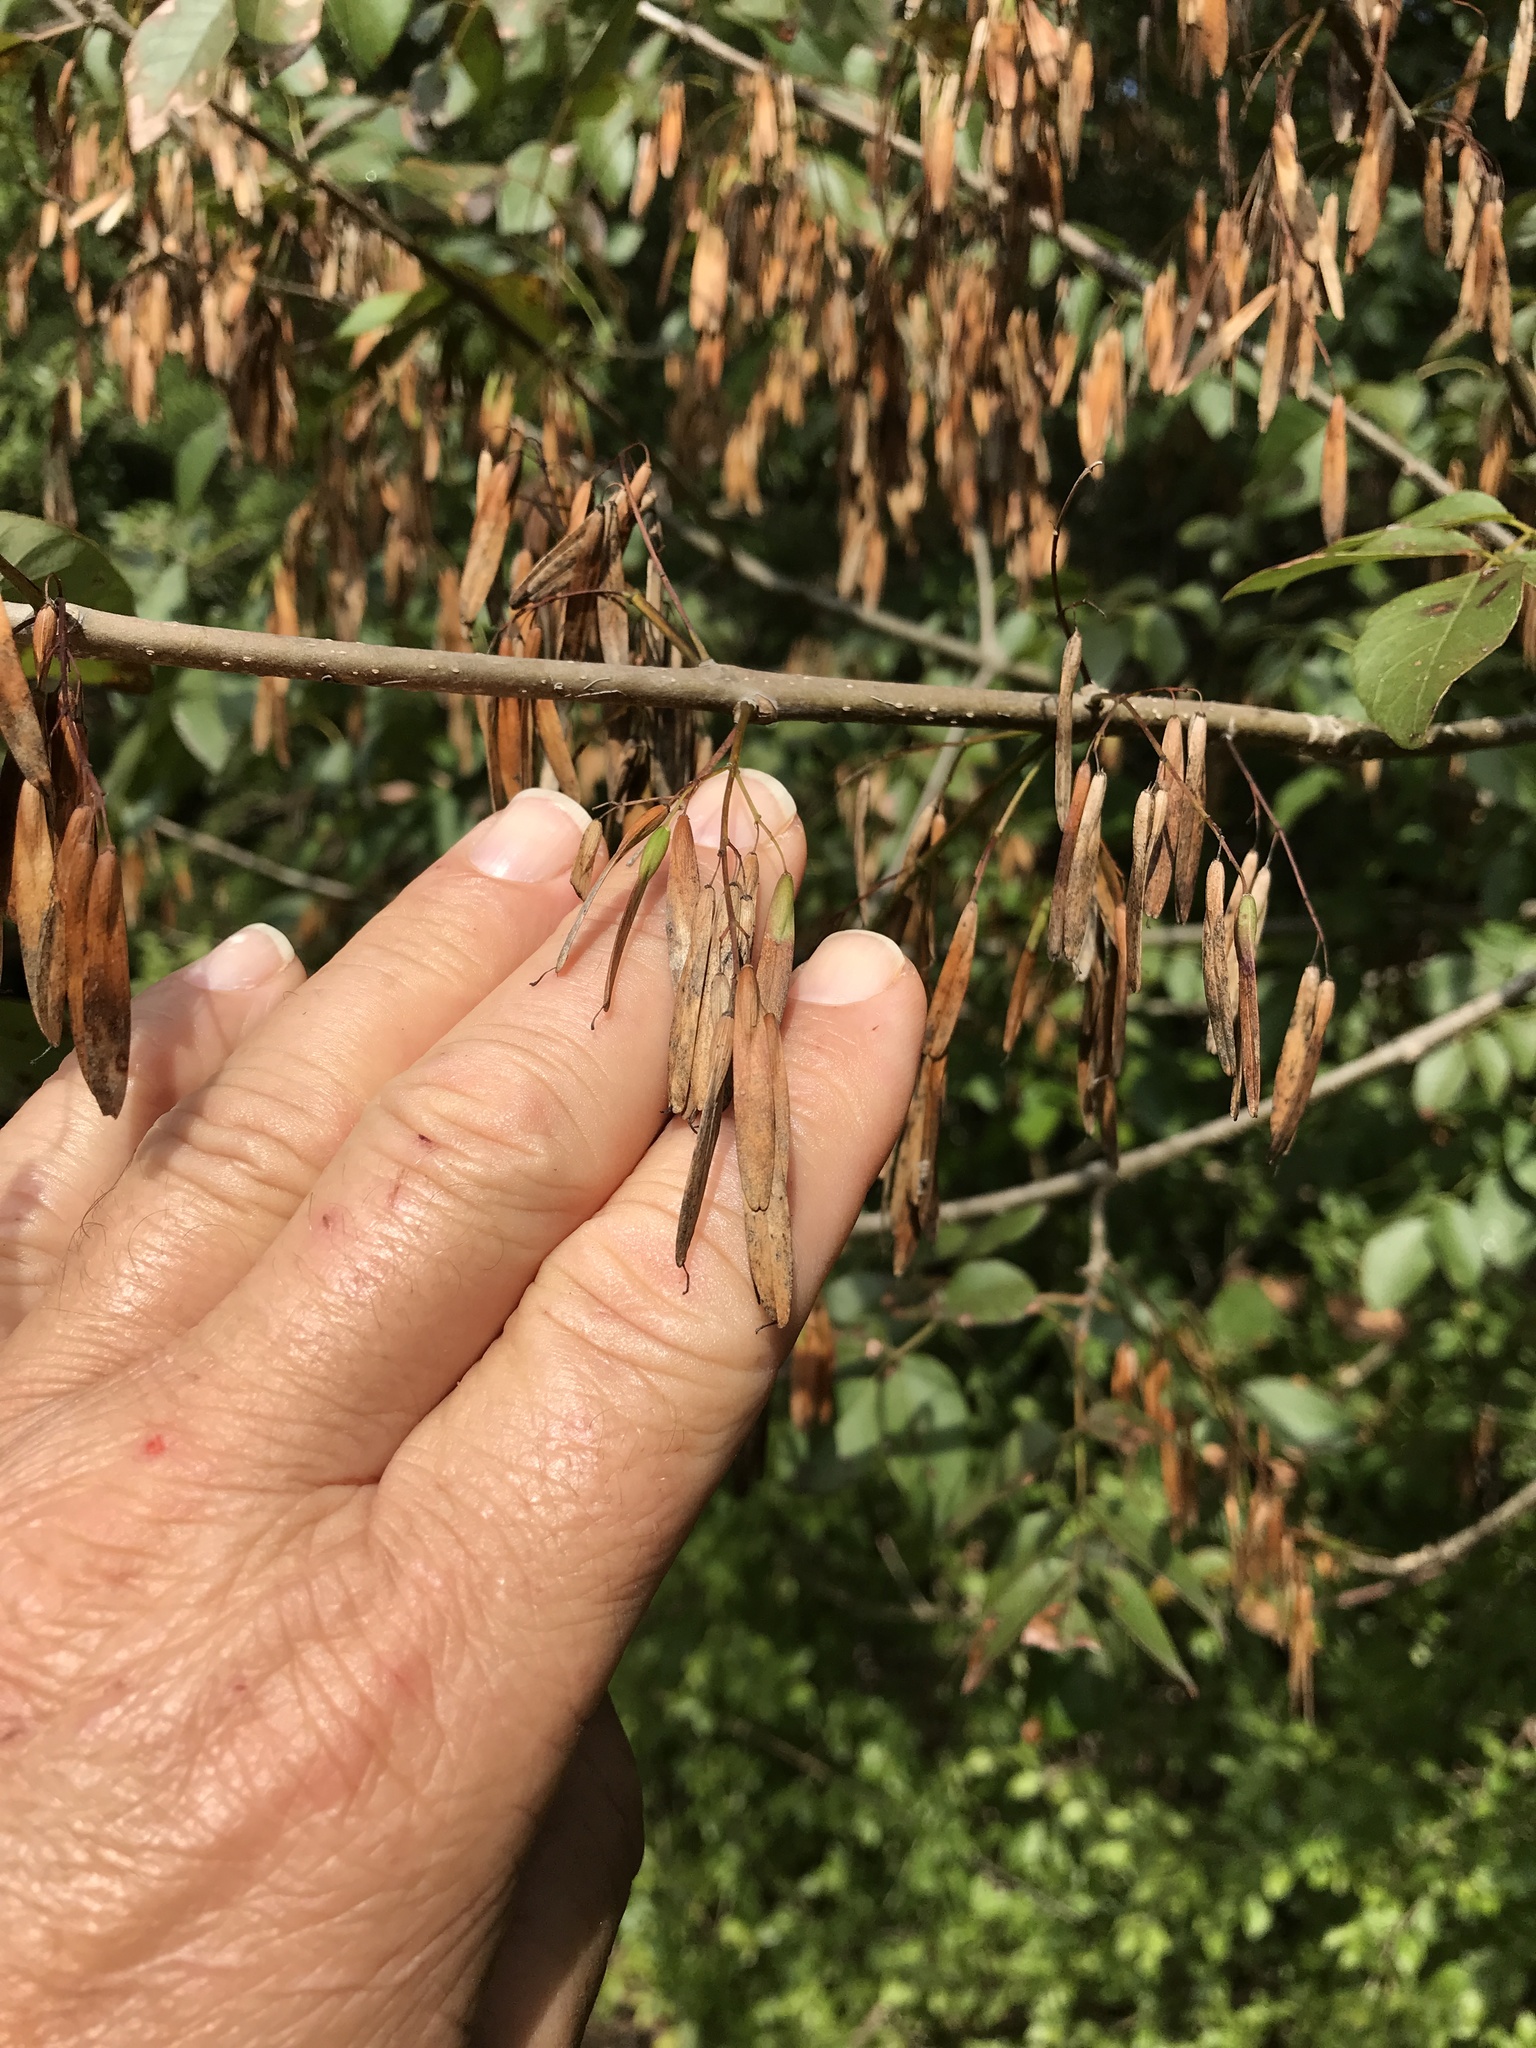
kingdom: Plantae
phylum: Tracheophyta
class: Magnoliopsida
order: Lamiales
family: Oleaceae
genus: Fraxinus
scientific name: Fraxinus albicans
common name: Texas ash
